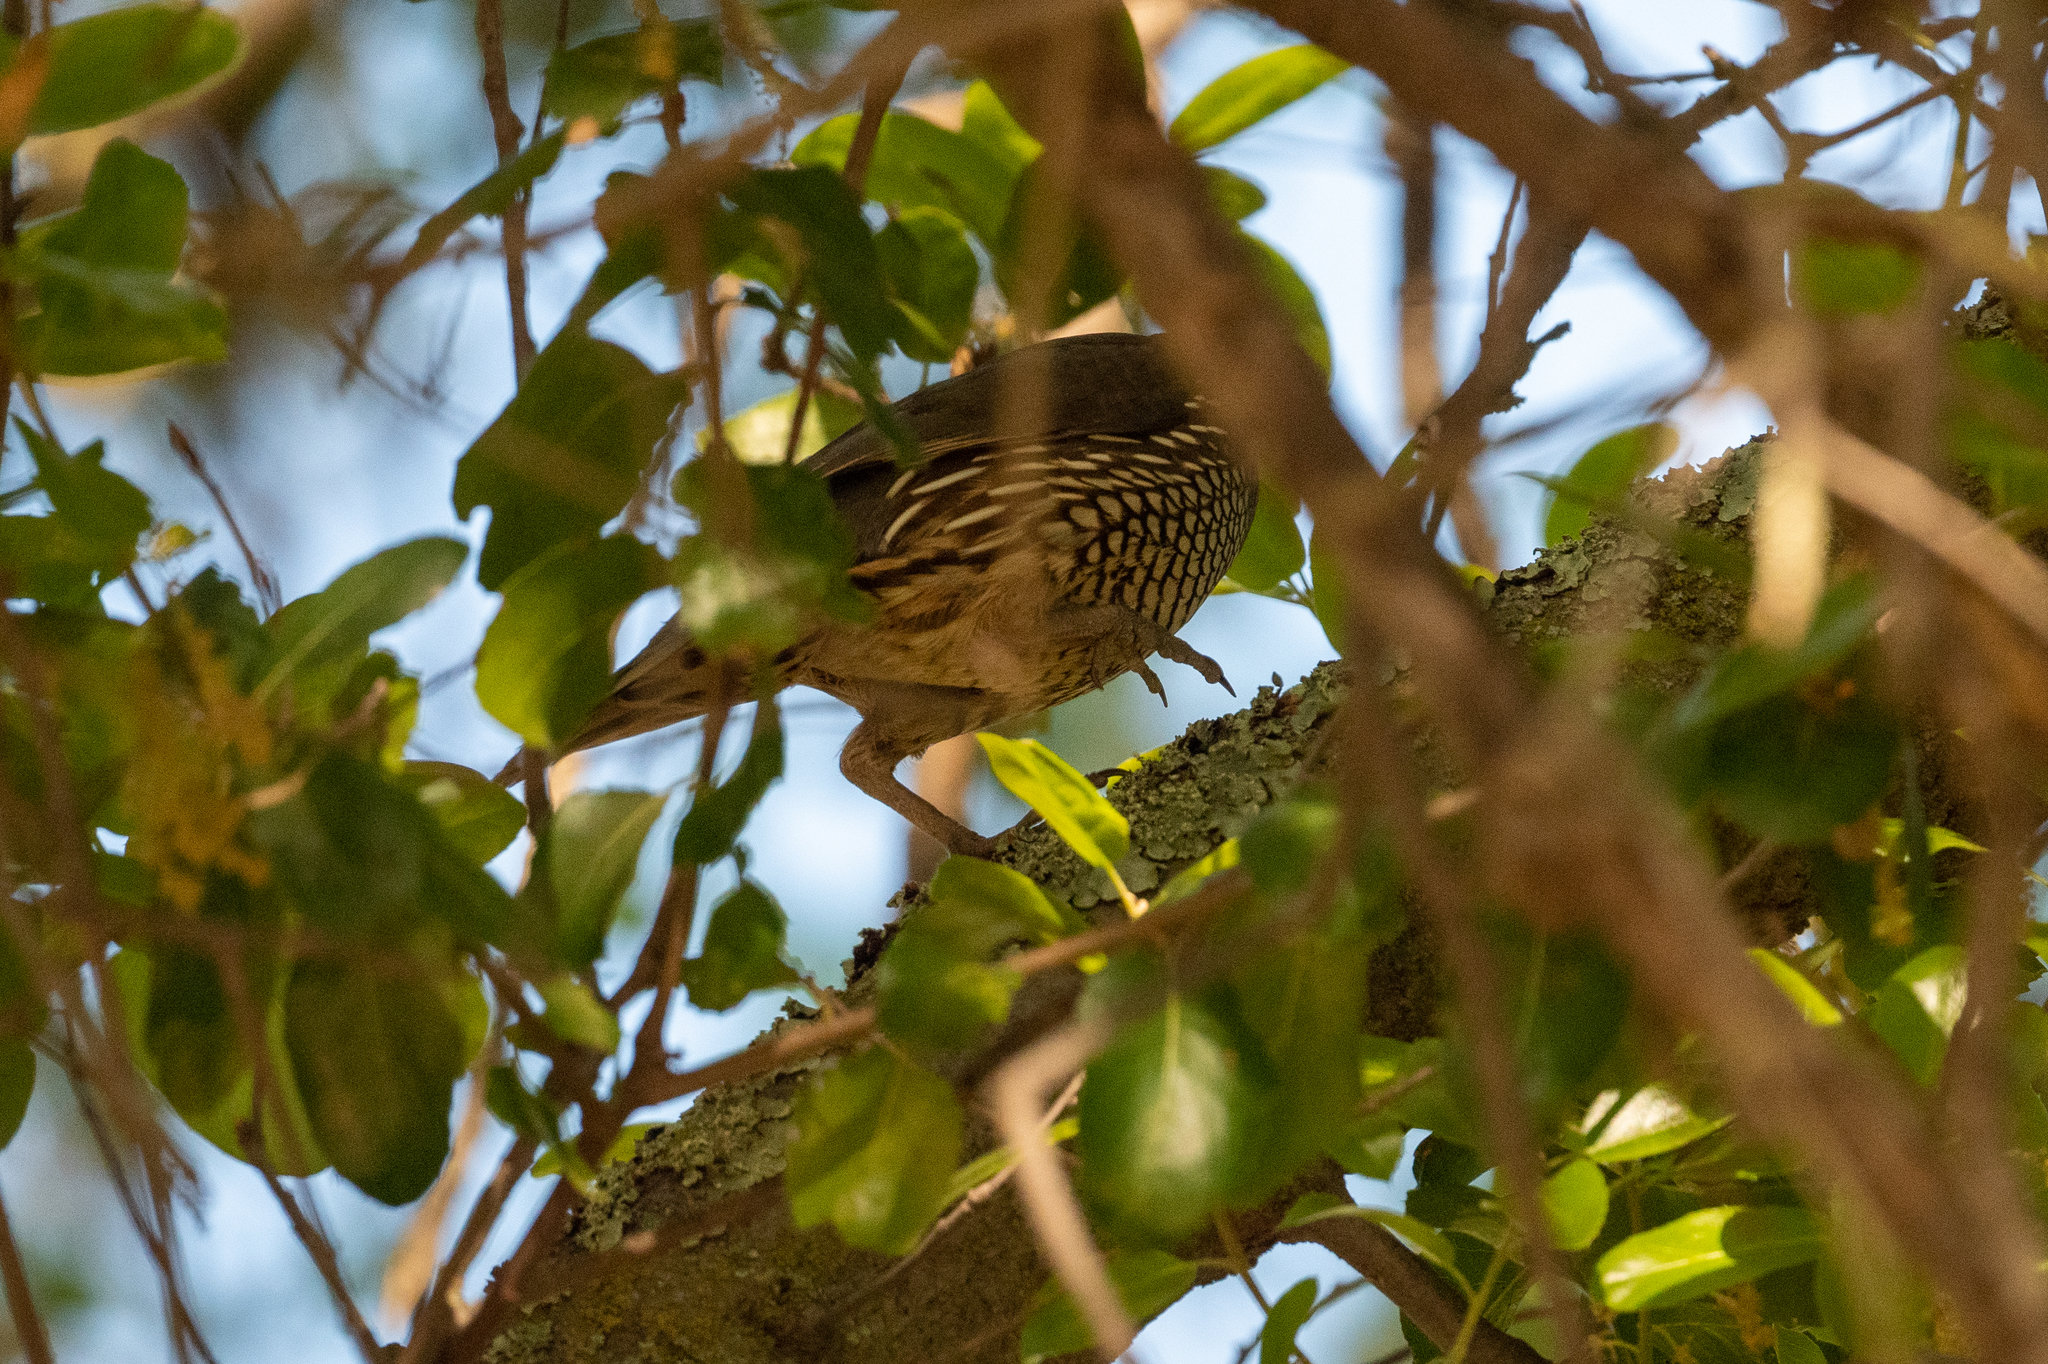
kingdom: Animalia
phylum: Chordata
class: Aves
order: Galliformes
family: Odontophoridae
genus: Callipepla
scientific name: Callipepla californica
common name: California quail
